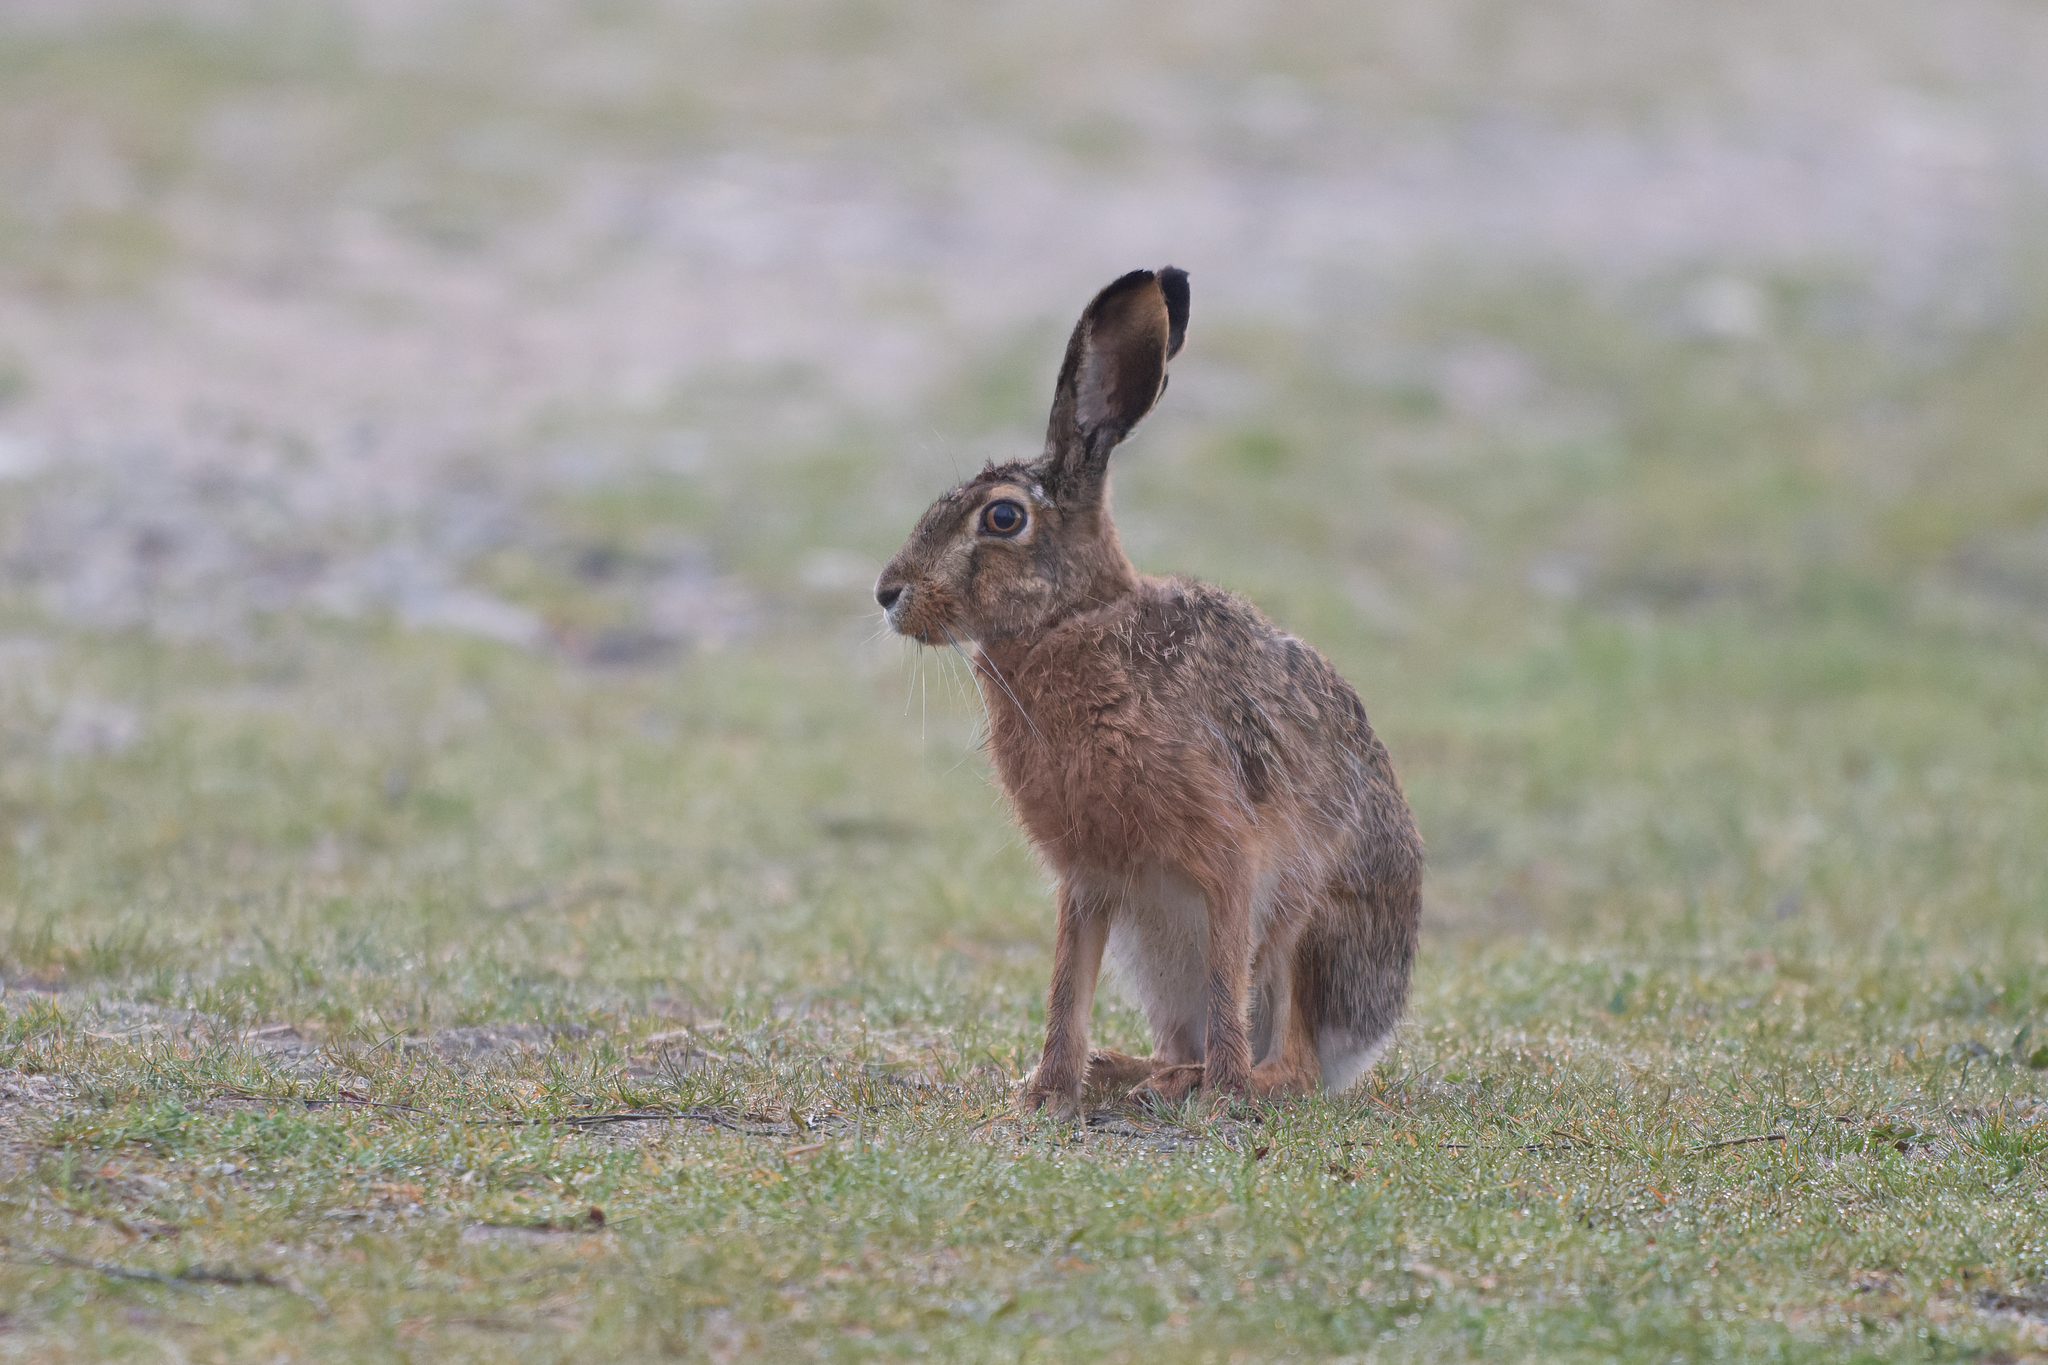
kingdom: Animalia
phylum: Chordata
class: Mammalia
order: Lagomorpha
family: Leporidae
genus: Lepus
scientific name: Lepus europaeus
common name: European hare
